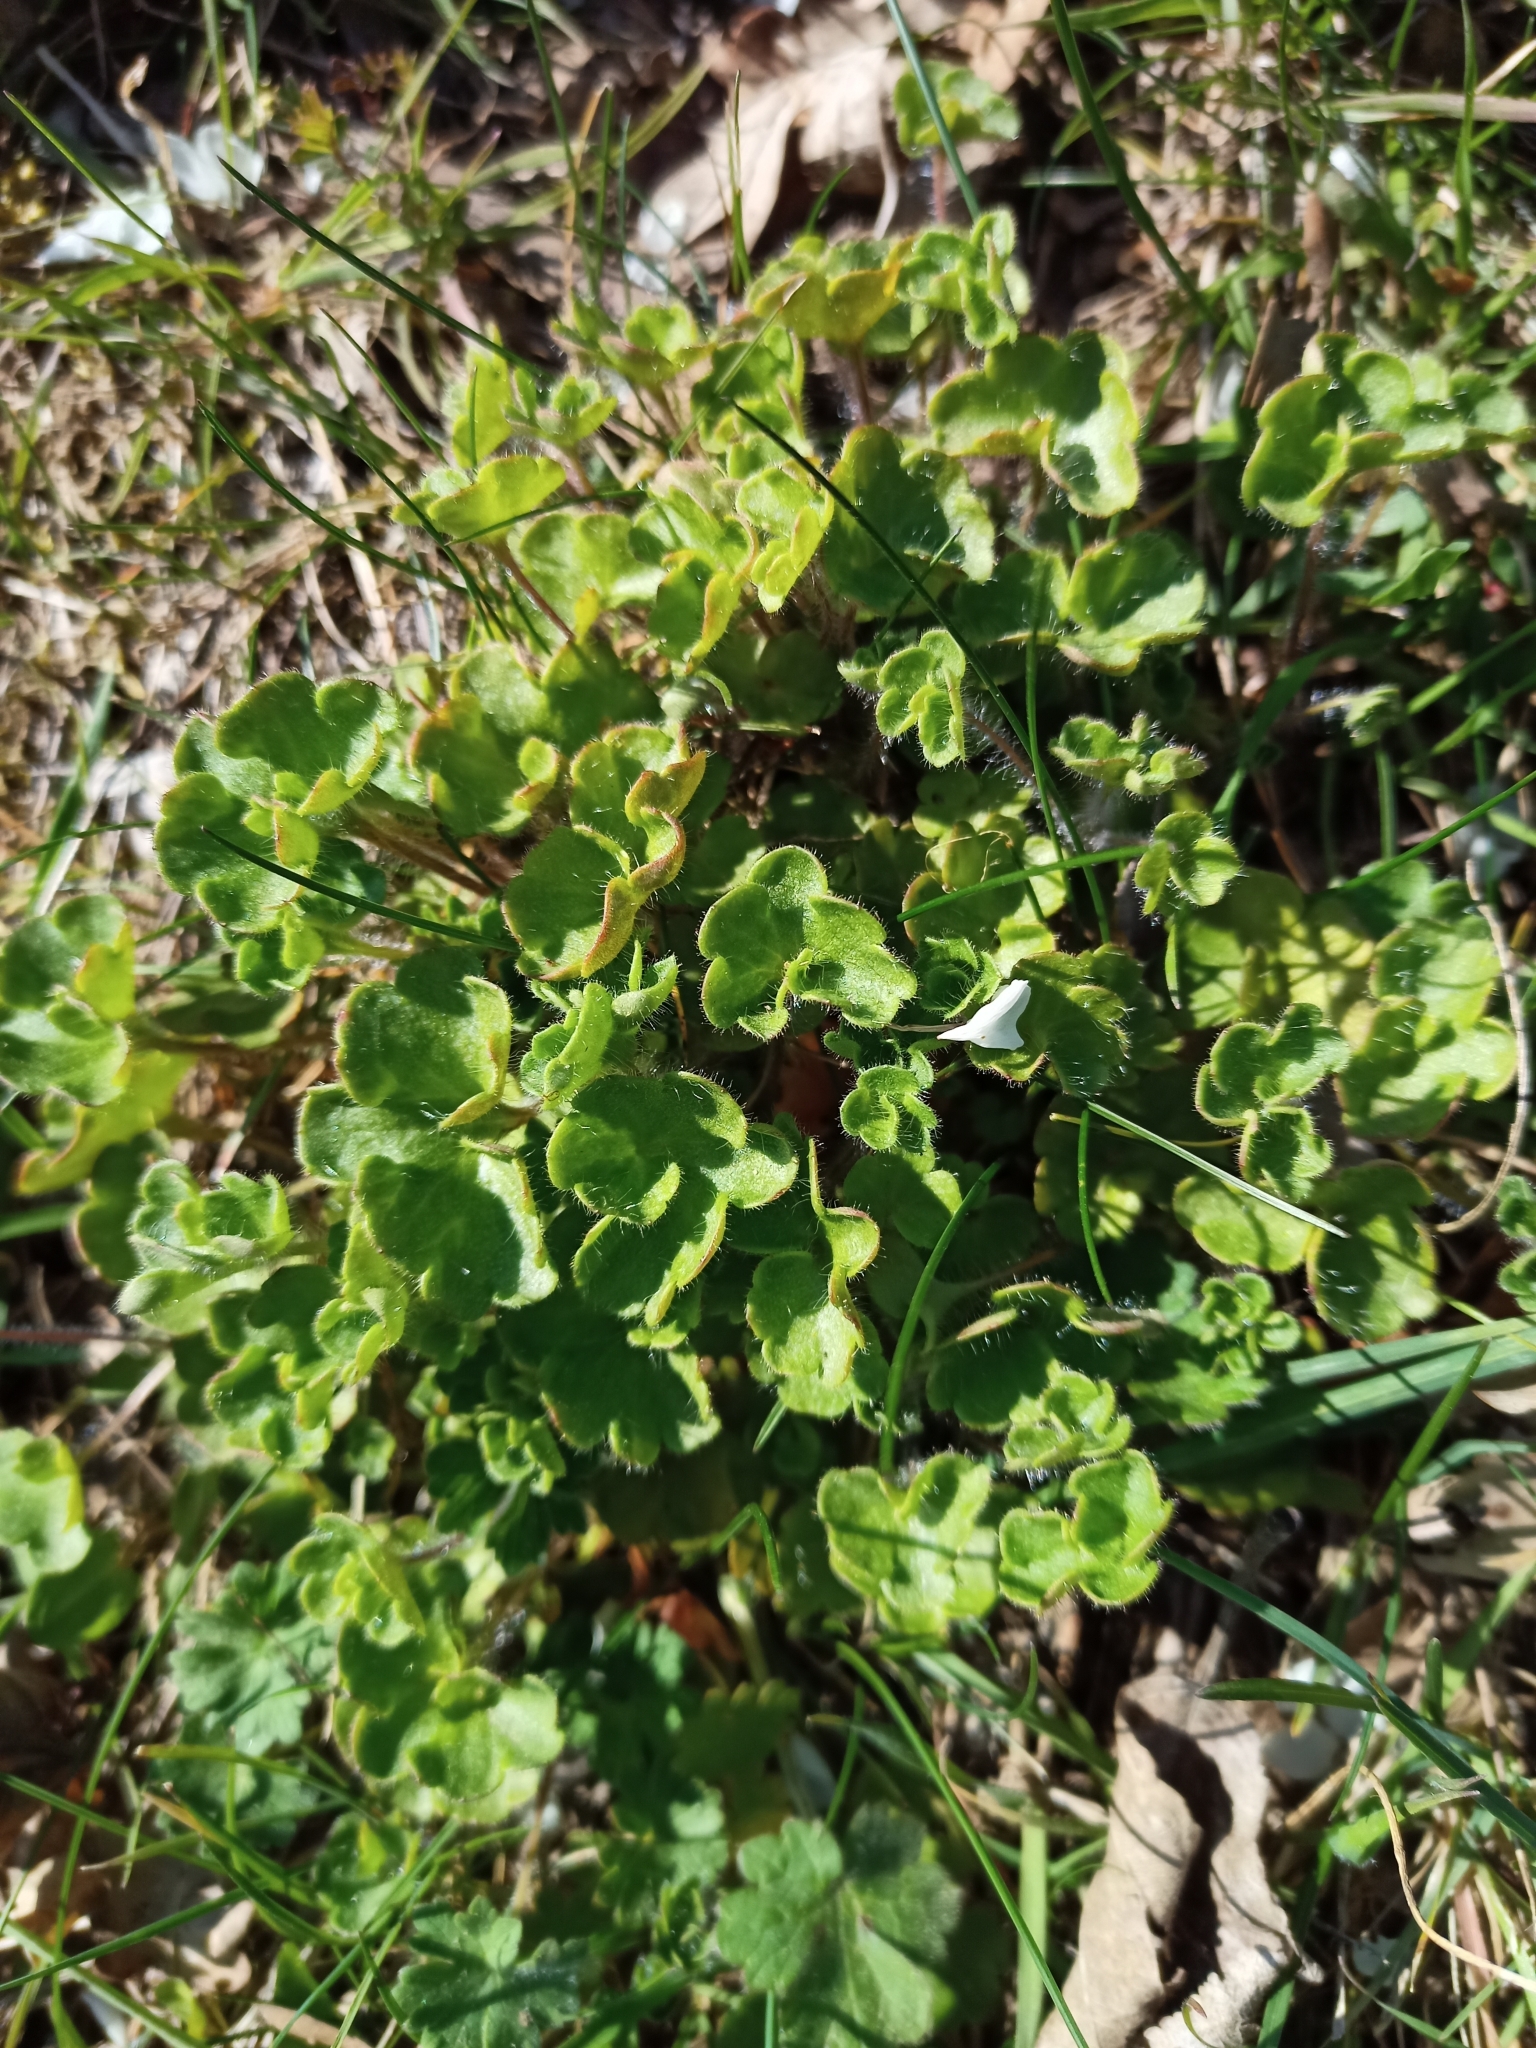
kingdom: Plantae
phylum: Tracheophyta
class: Magnoliopsida
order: Saxifragales
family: Saxifragaceae
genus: Saxifraga
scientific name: Saxifraga granulata
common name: Meadow saxifrage
